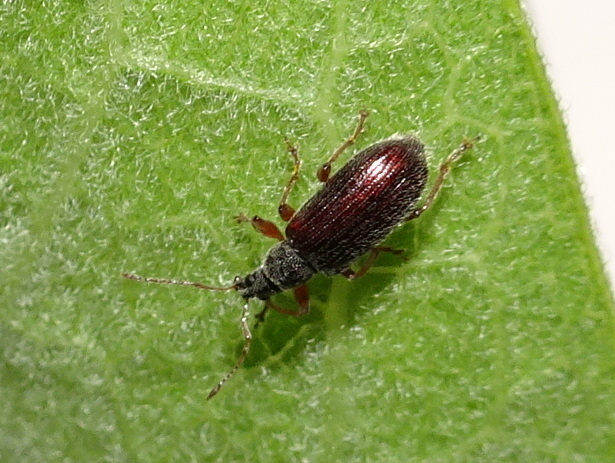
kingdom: Animalia
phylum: Arthropoda
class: Insecta
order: Coleoptera
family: Curculionidae
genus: Phyllobius
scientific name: Phyllobius oblongus
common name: Brown leaf weevil
